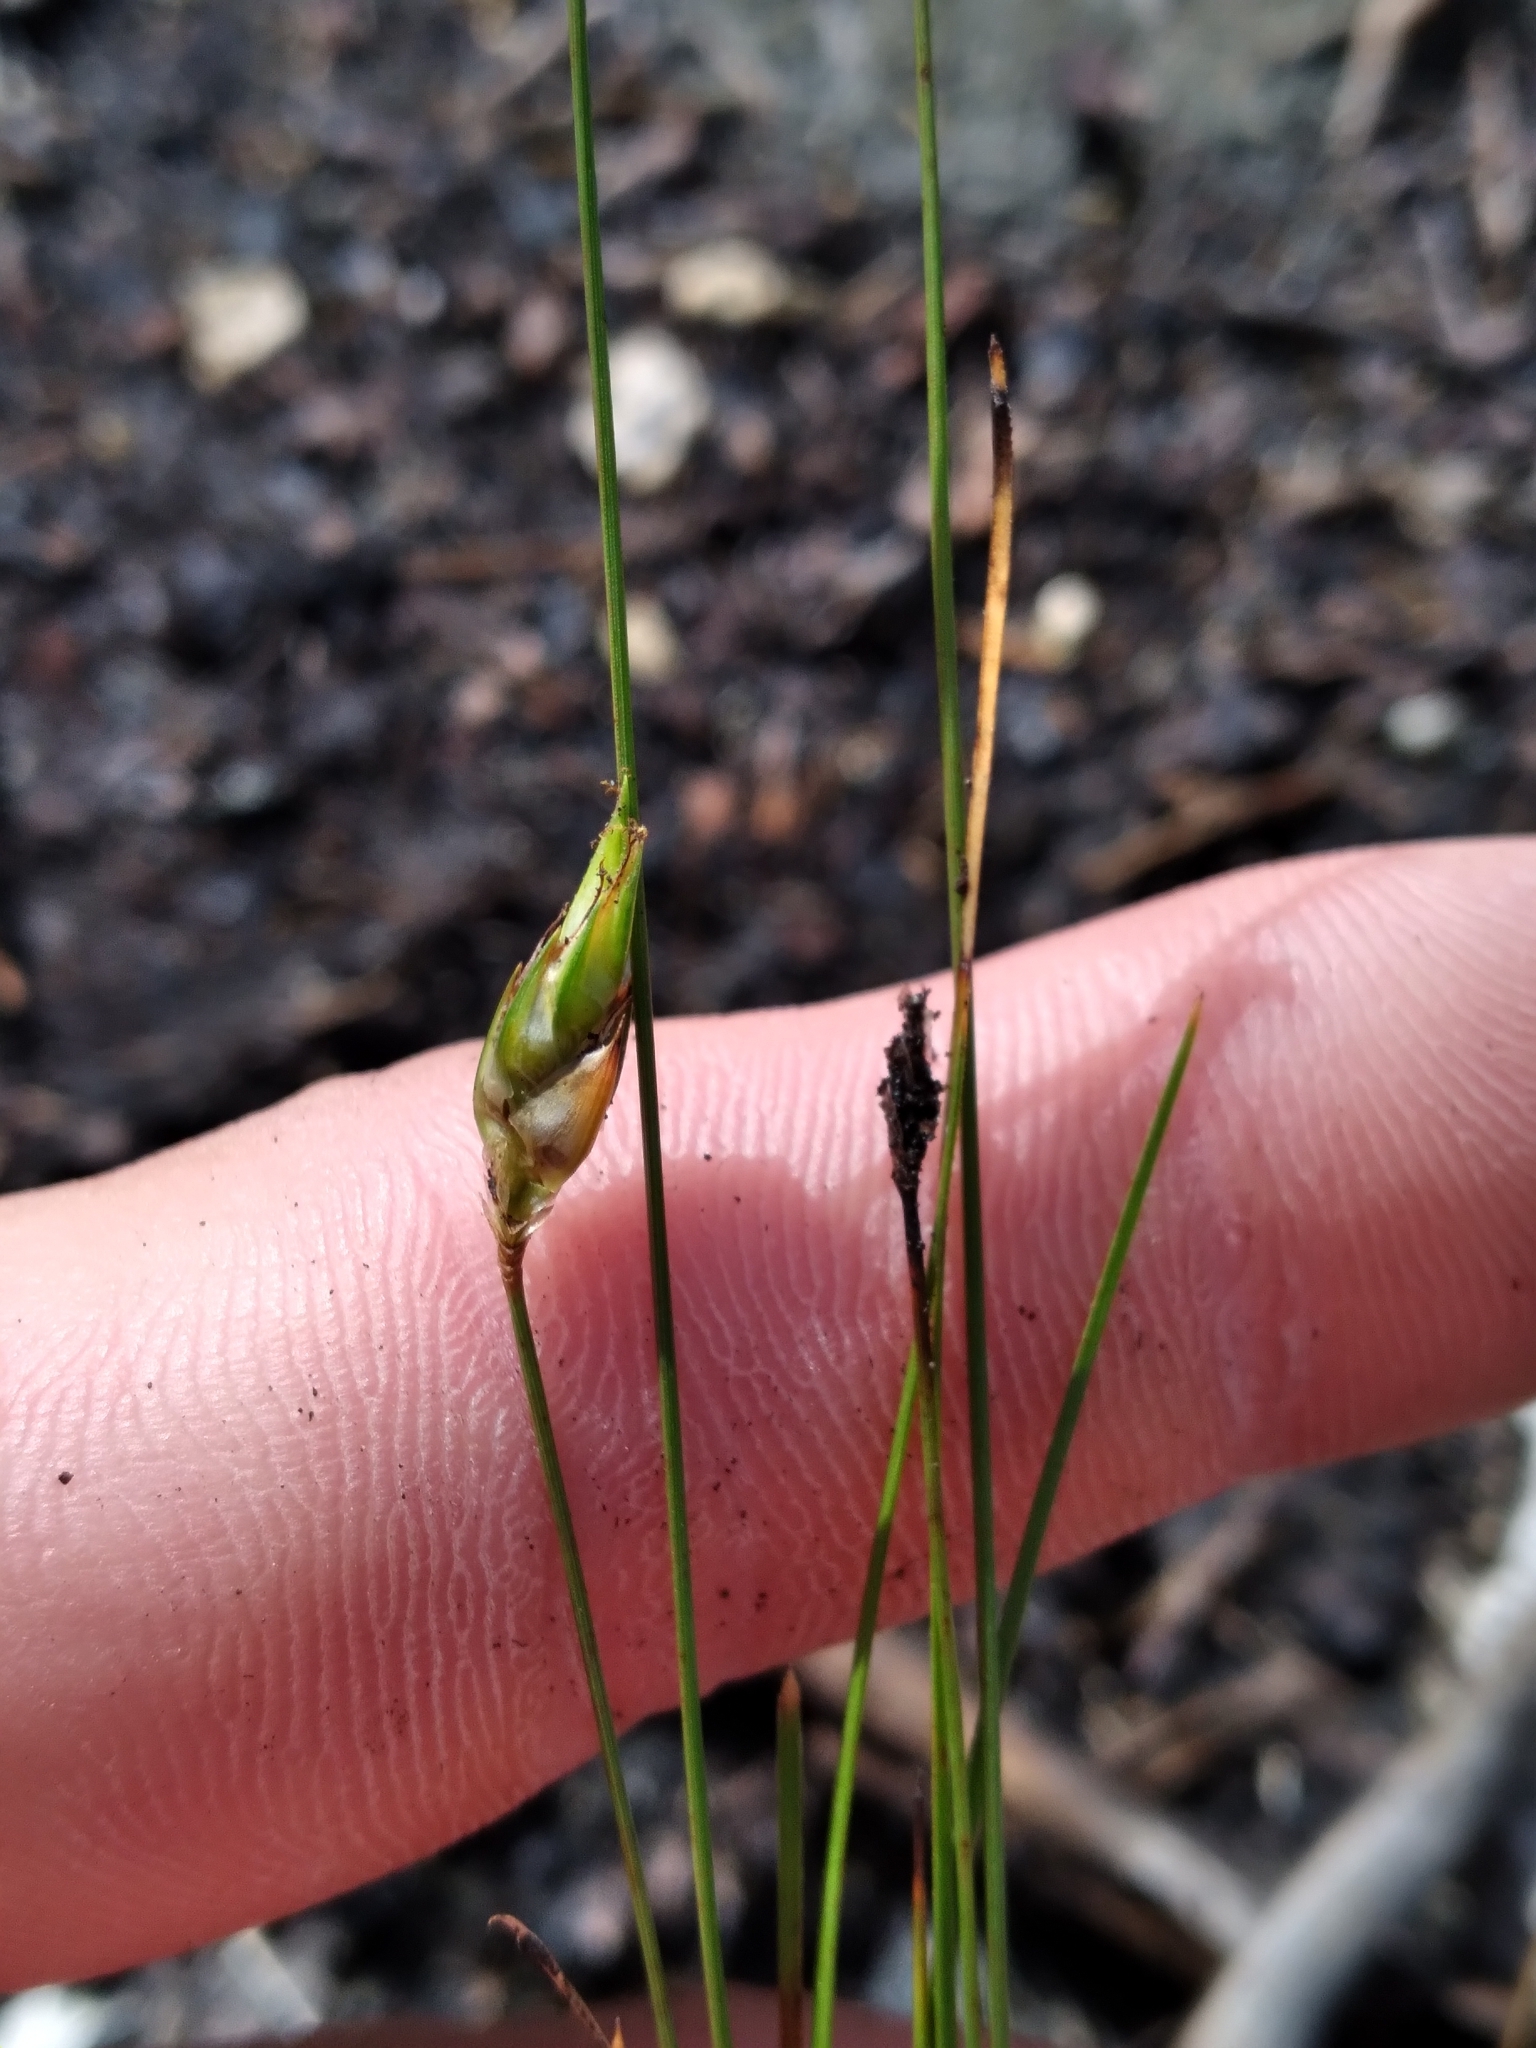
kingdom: Plantae
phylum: Tracheophyta
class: Liliopsida
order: Poales
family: Cyperaceae
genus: Abildgaardia
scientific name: Abildgaardia ovata
